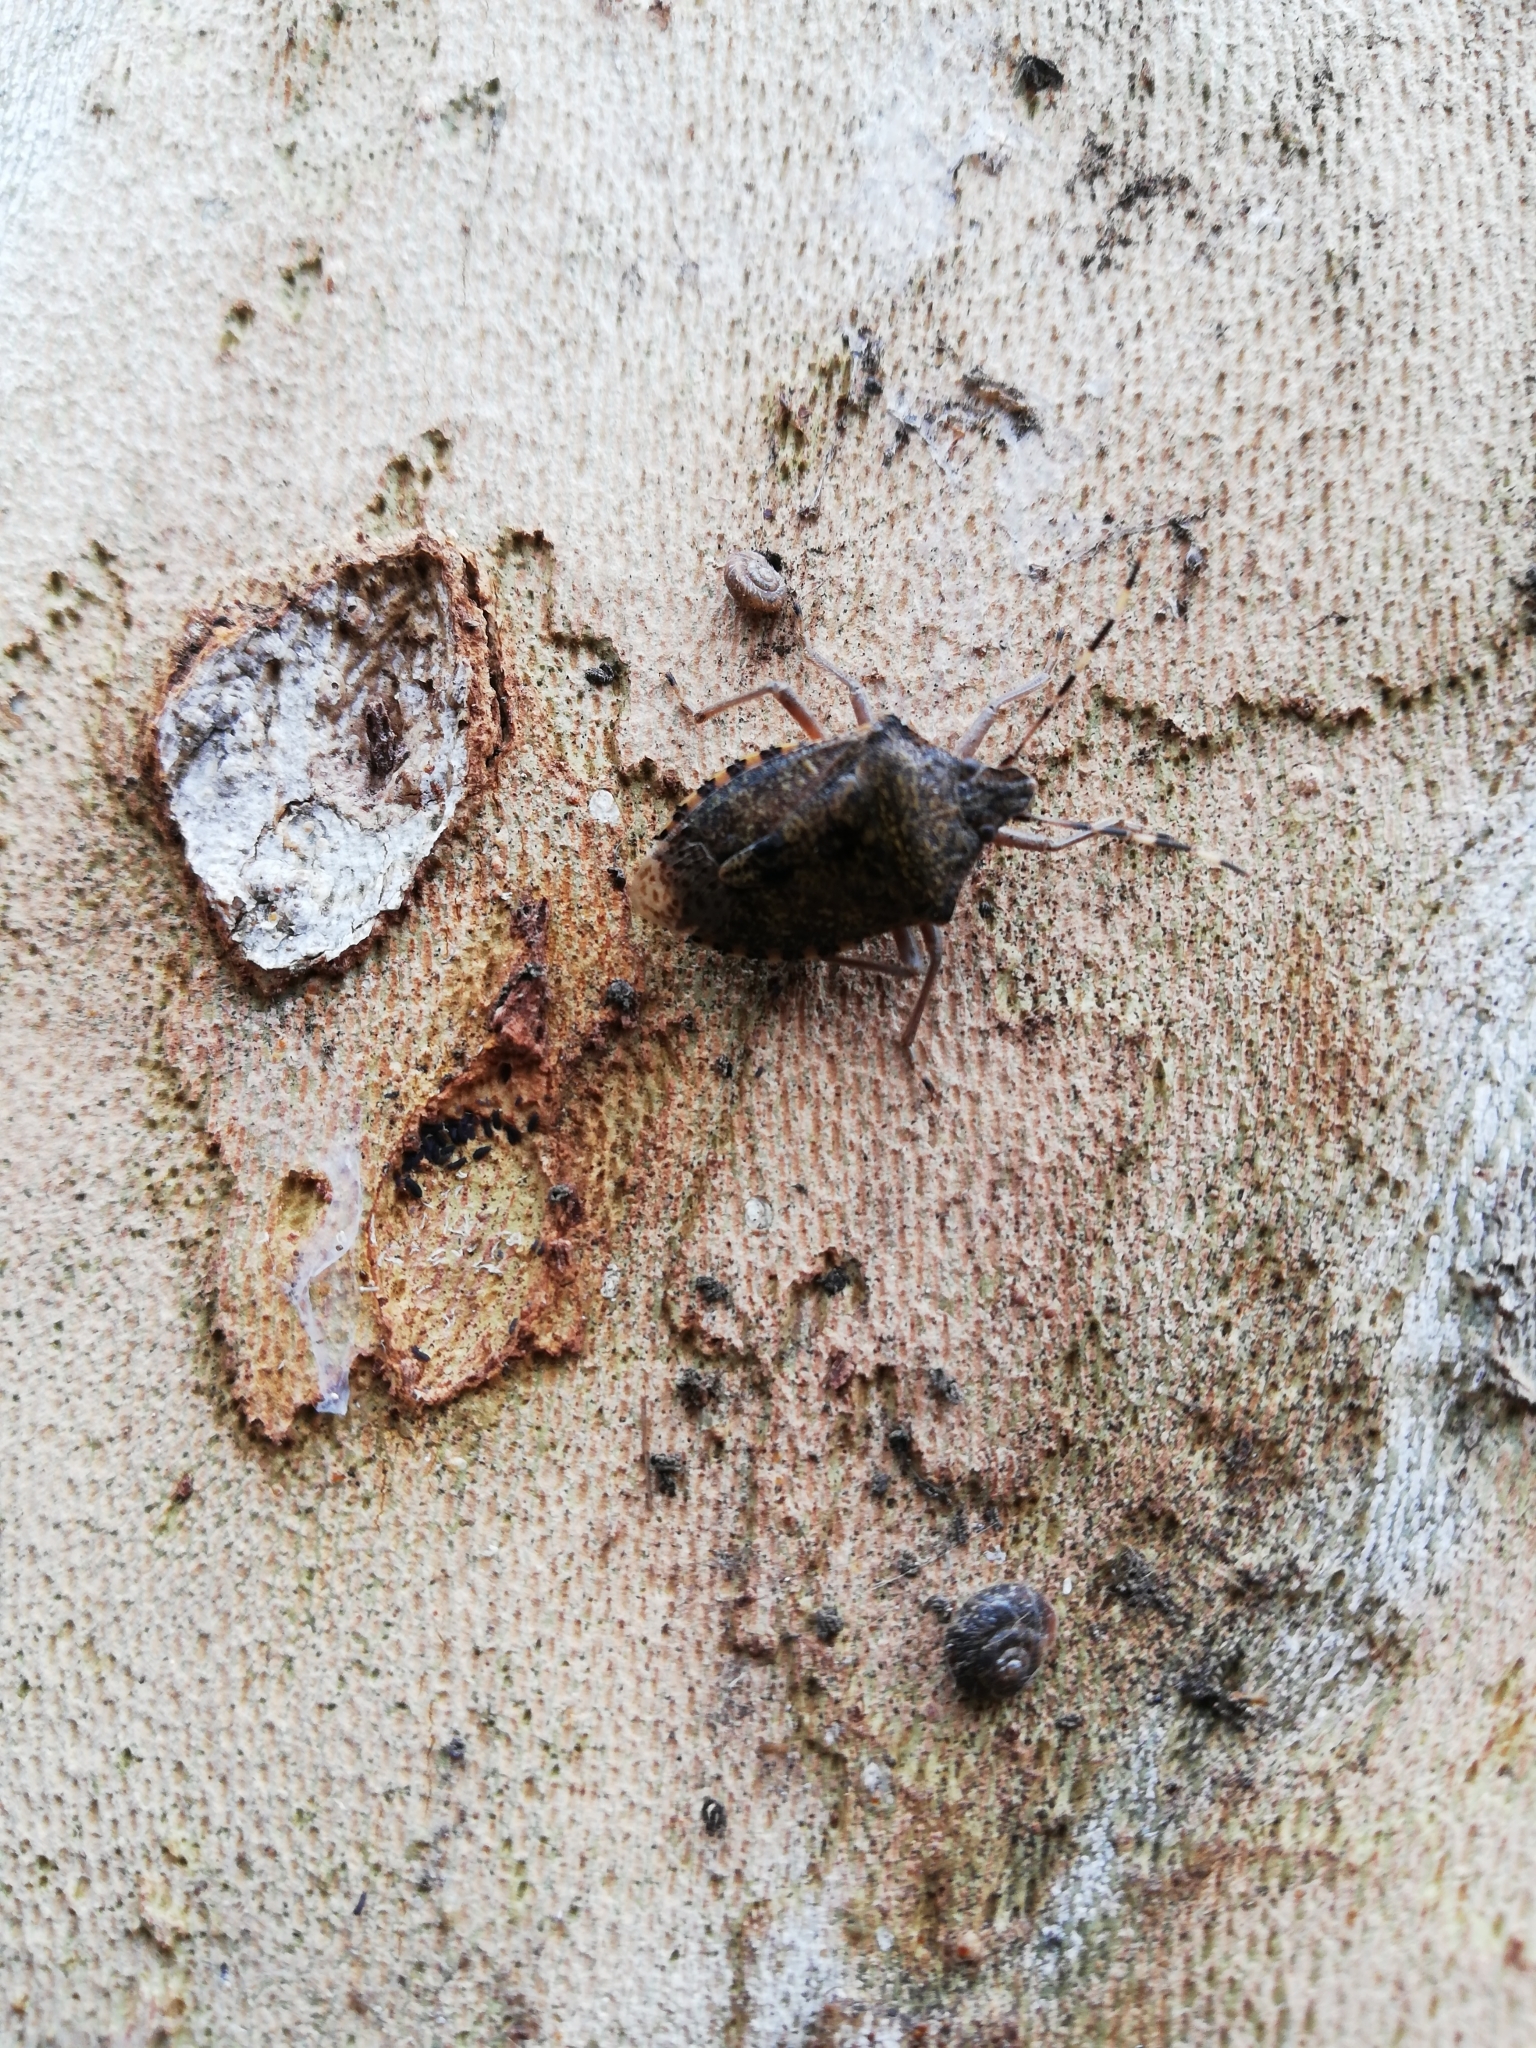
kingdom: Animalia
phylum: Arthropoda
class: Insecta
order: Hemiptera
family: Pentatomidae
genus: Rhaphigaster
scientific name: Rhaphigaster nebulosa
